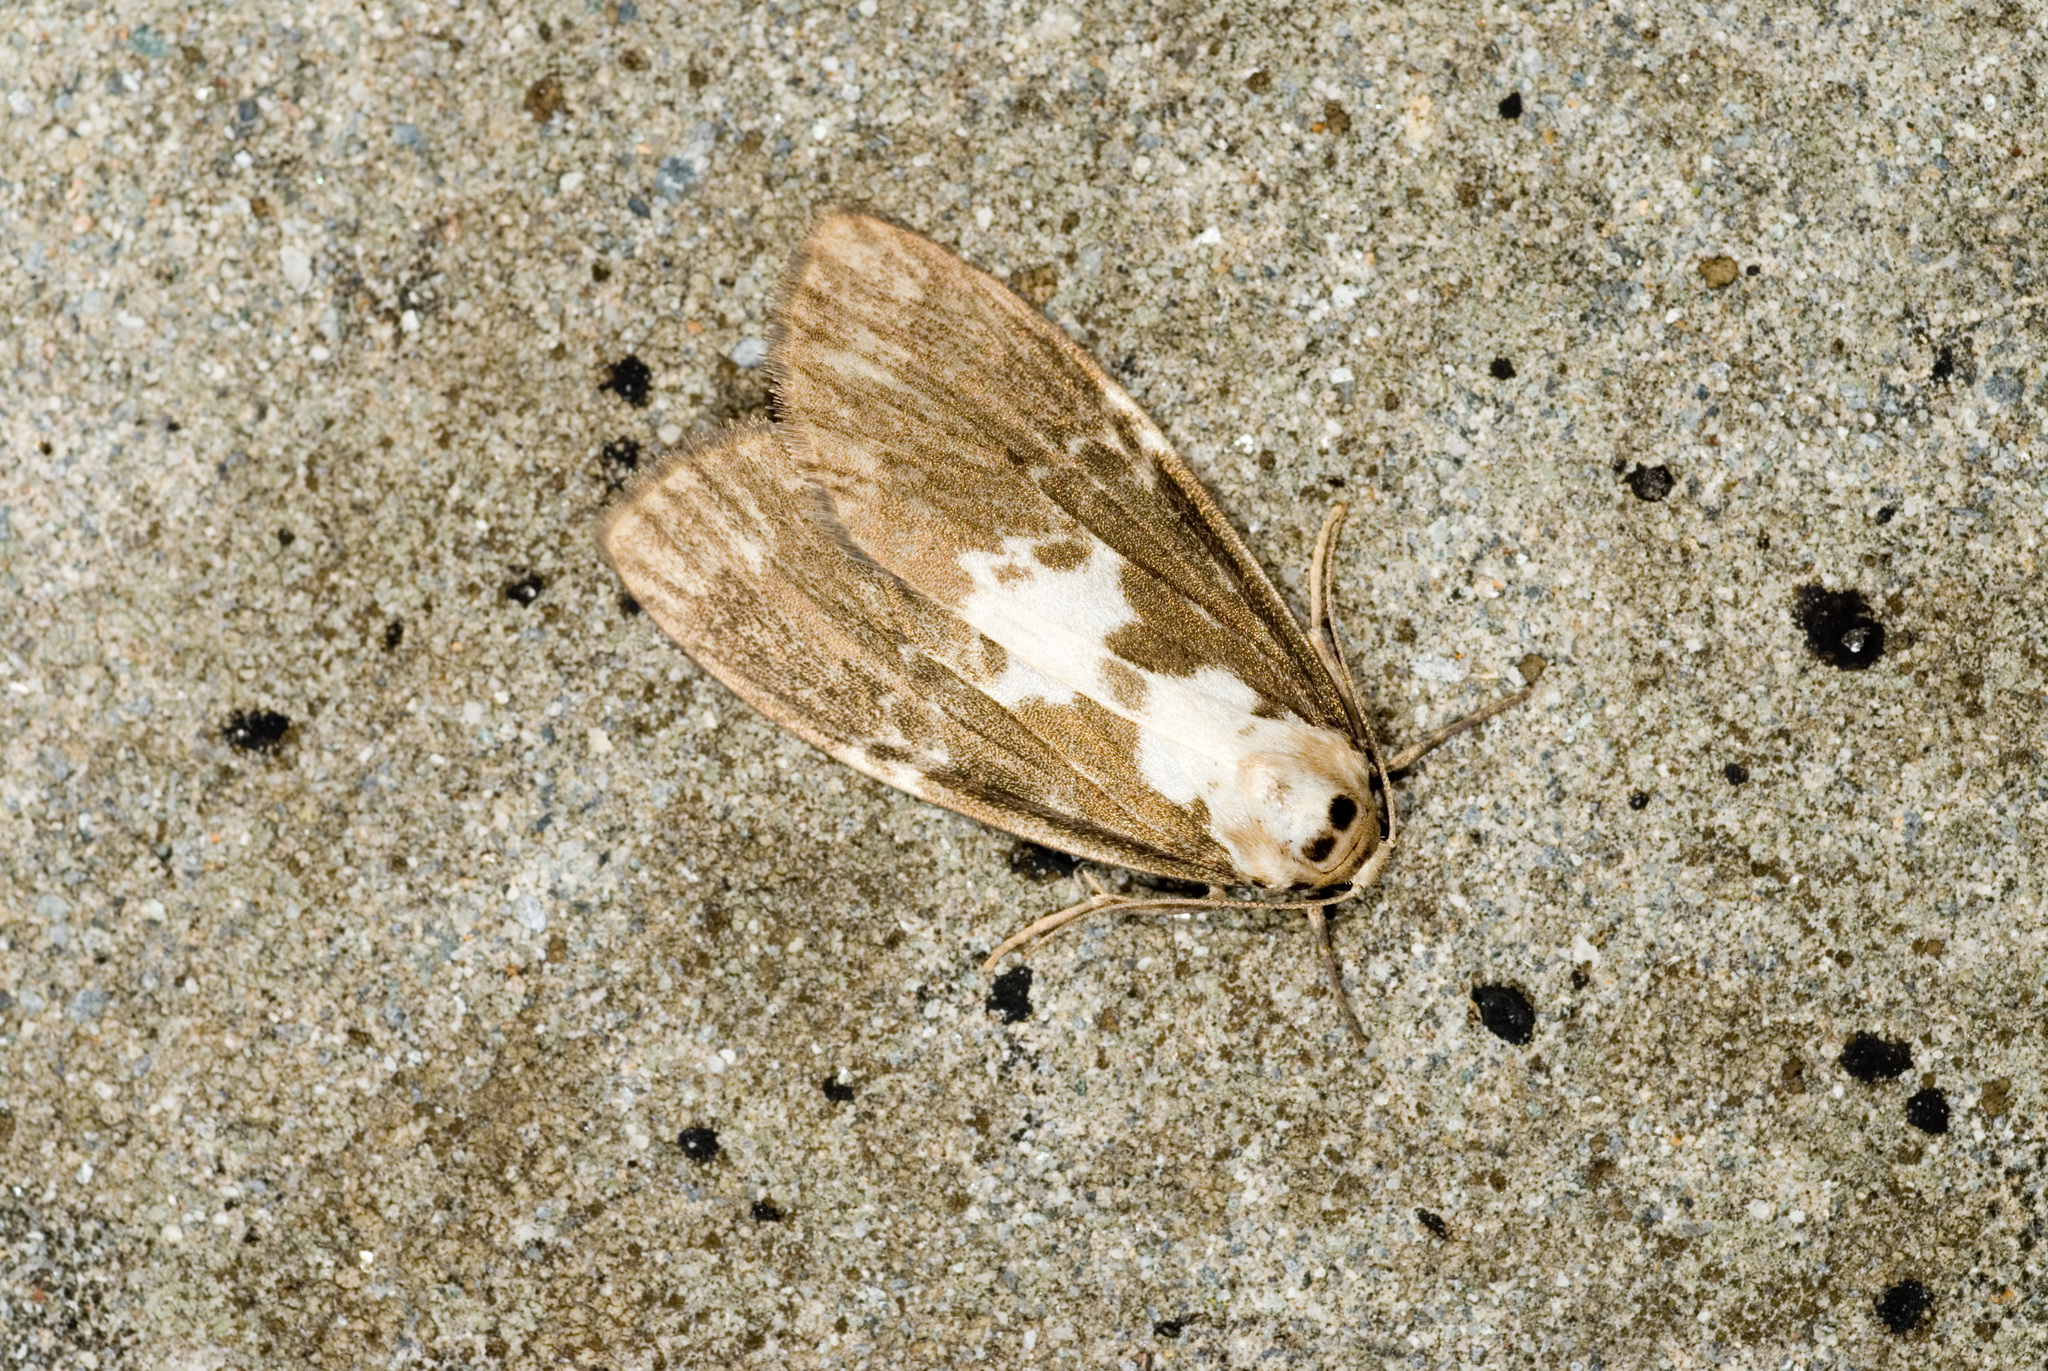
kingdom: Animalia
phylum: Arthropoda
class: Insecta
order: Lepidoptera
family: Erebidae
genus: Barsura
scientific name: Barsura albidorsalis
